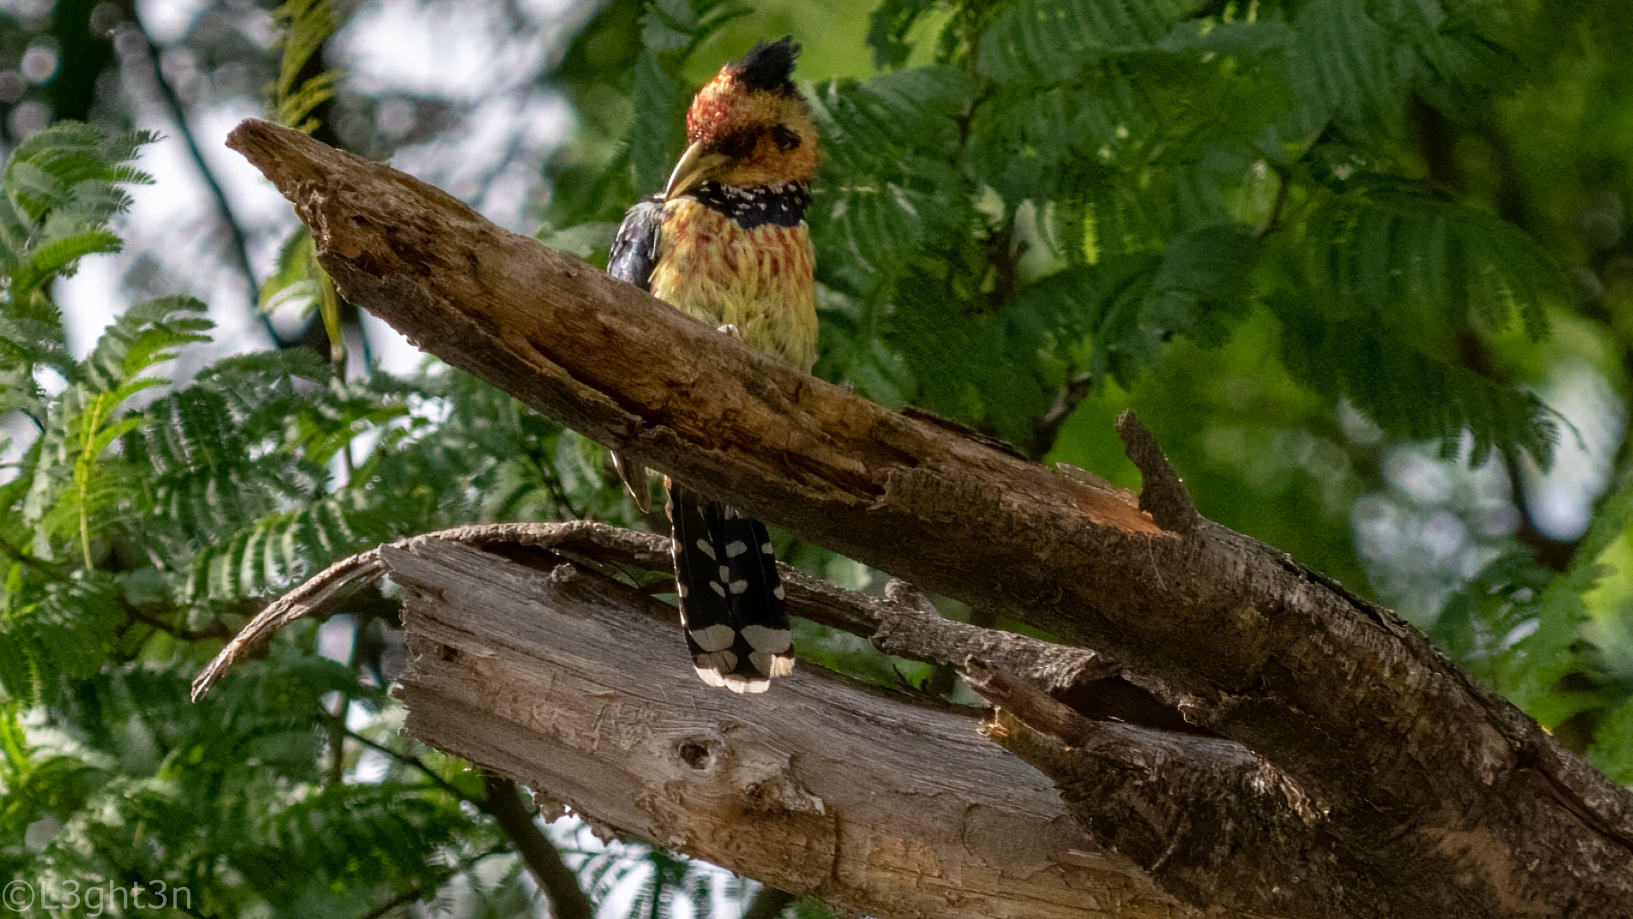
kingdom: Animalia
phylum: Chordata
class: Aves
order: Piciformes
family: Lybiidae
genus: Trachyphonus
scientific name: Trachyphonus vaillantii
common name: Crested barbet
